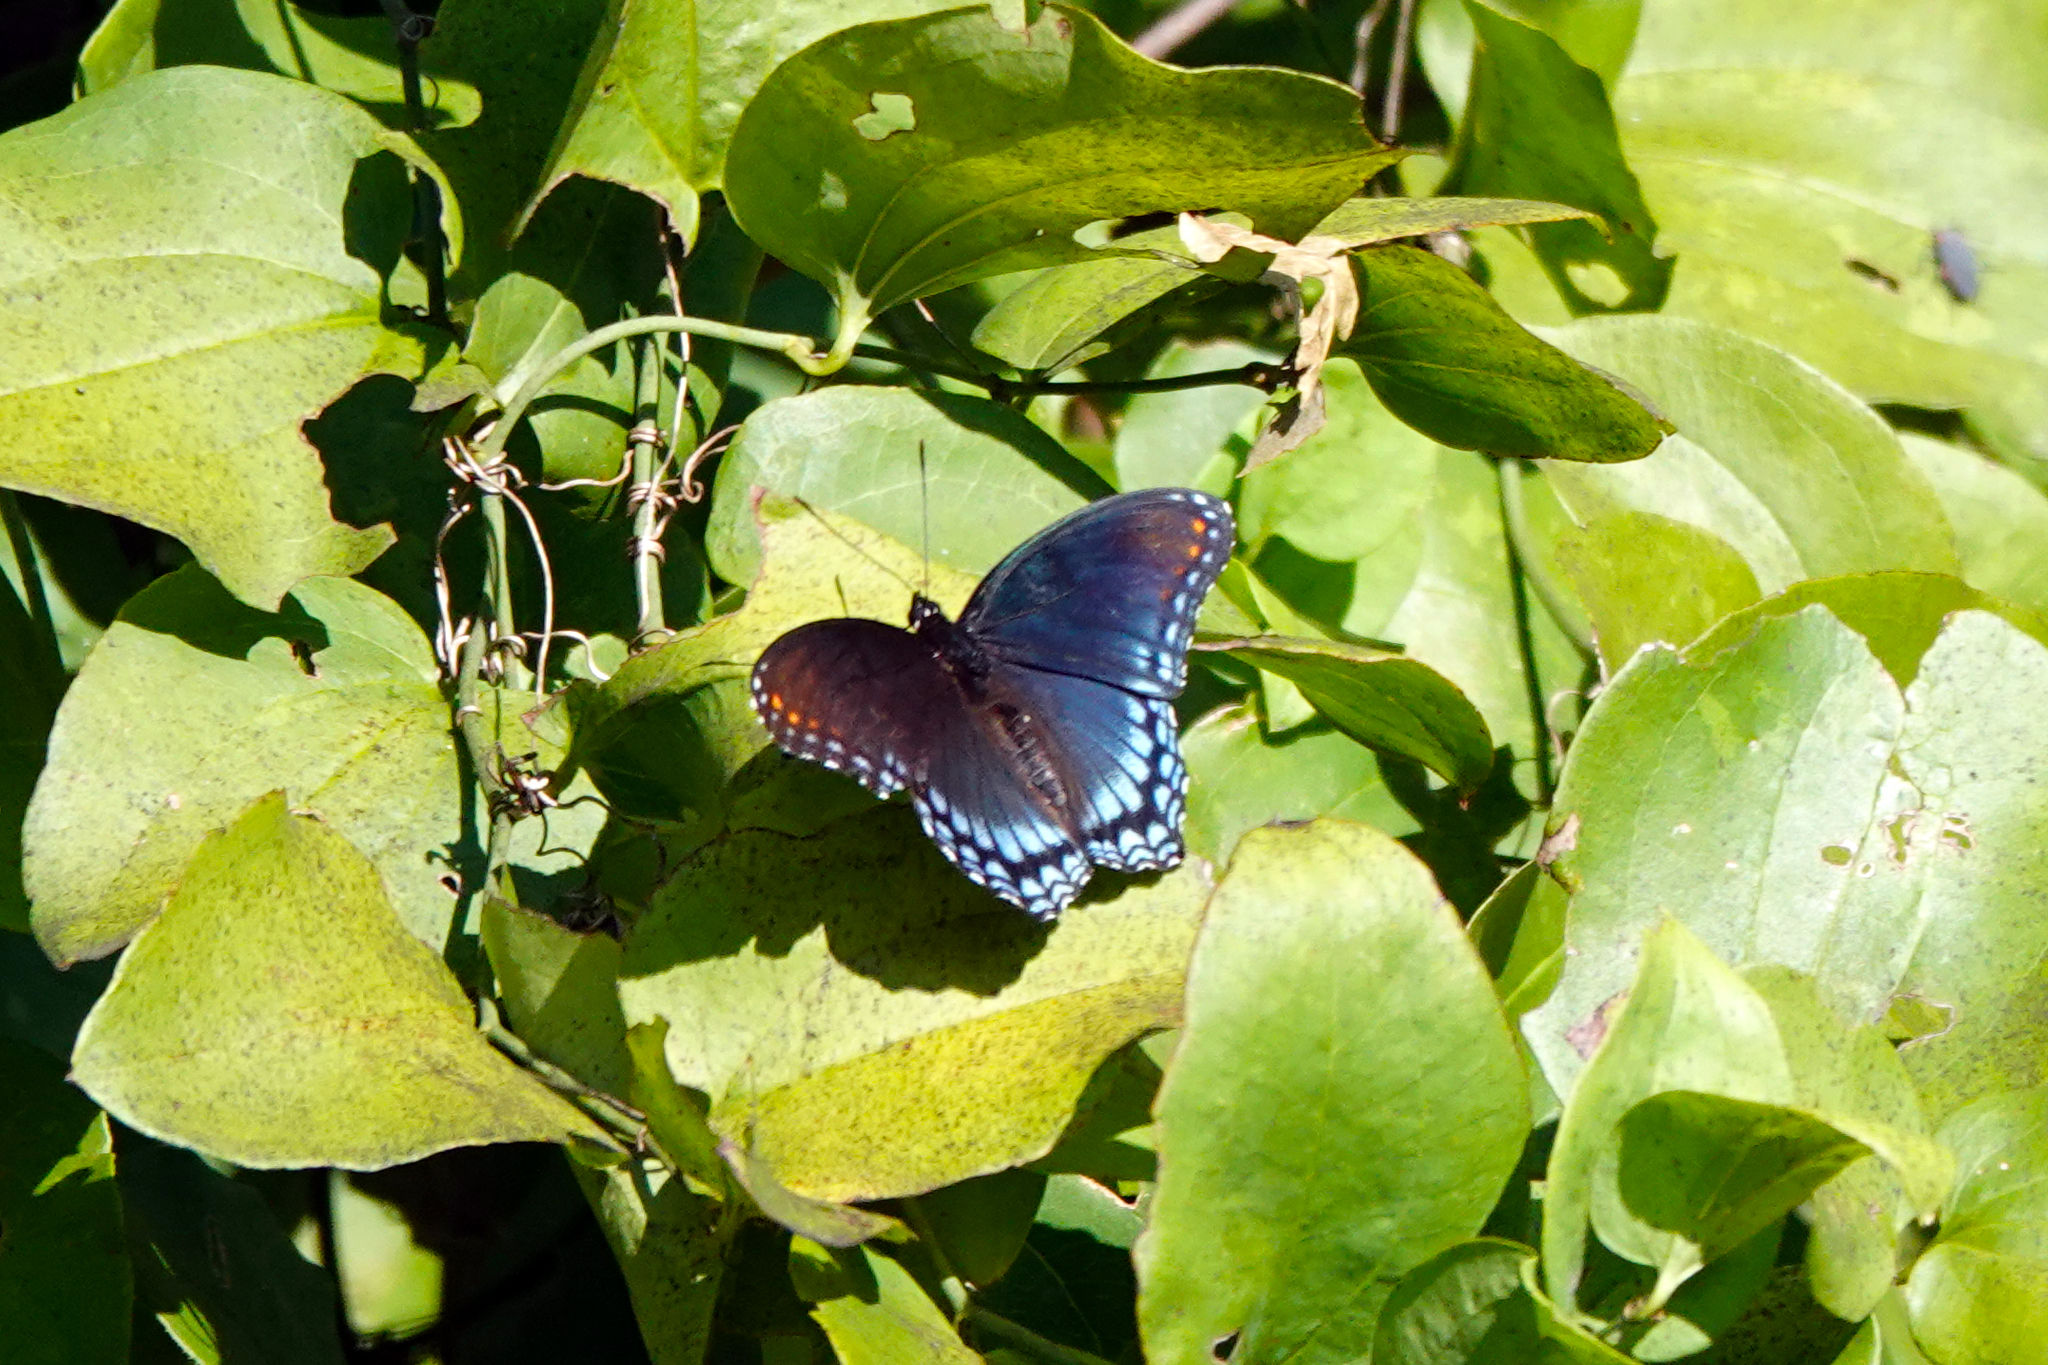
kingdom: Animalia
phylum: Arthropoda
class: Insecta
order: Lepidoptera
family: Nymphalidae
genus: Limenitis
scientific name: Limenitis astyanax
